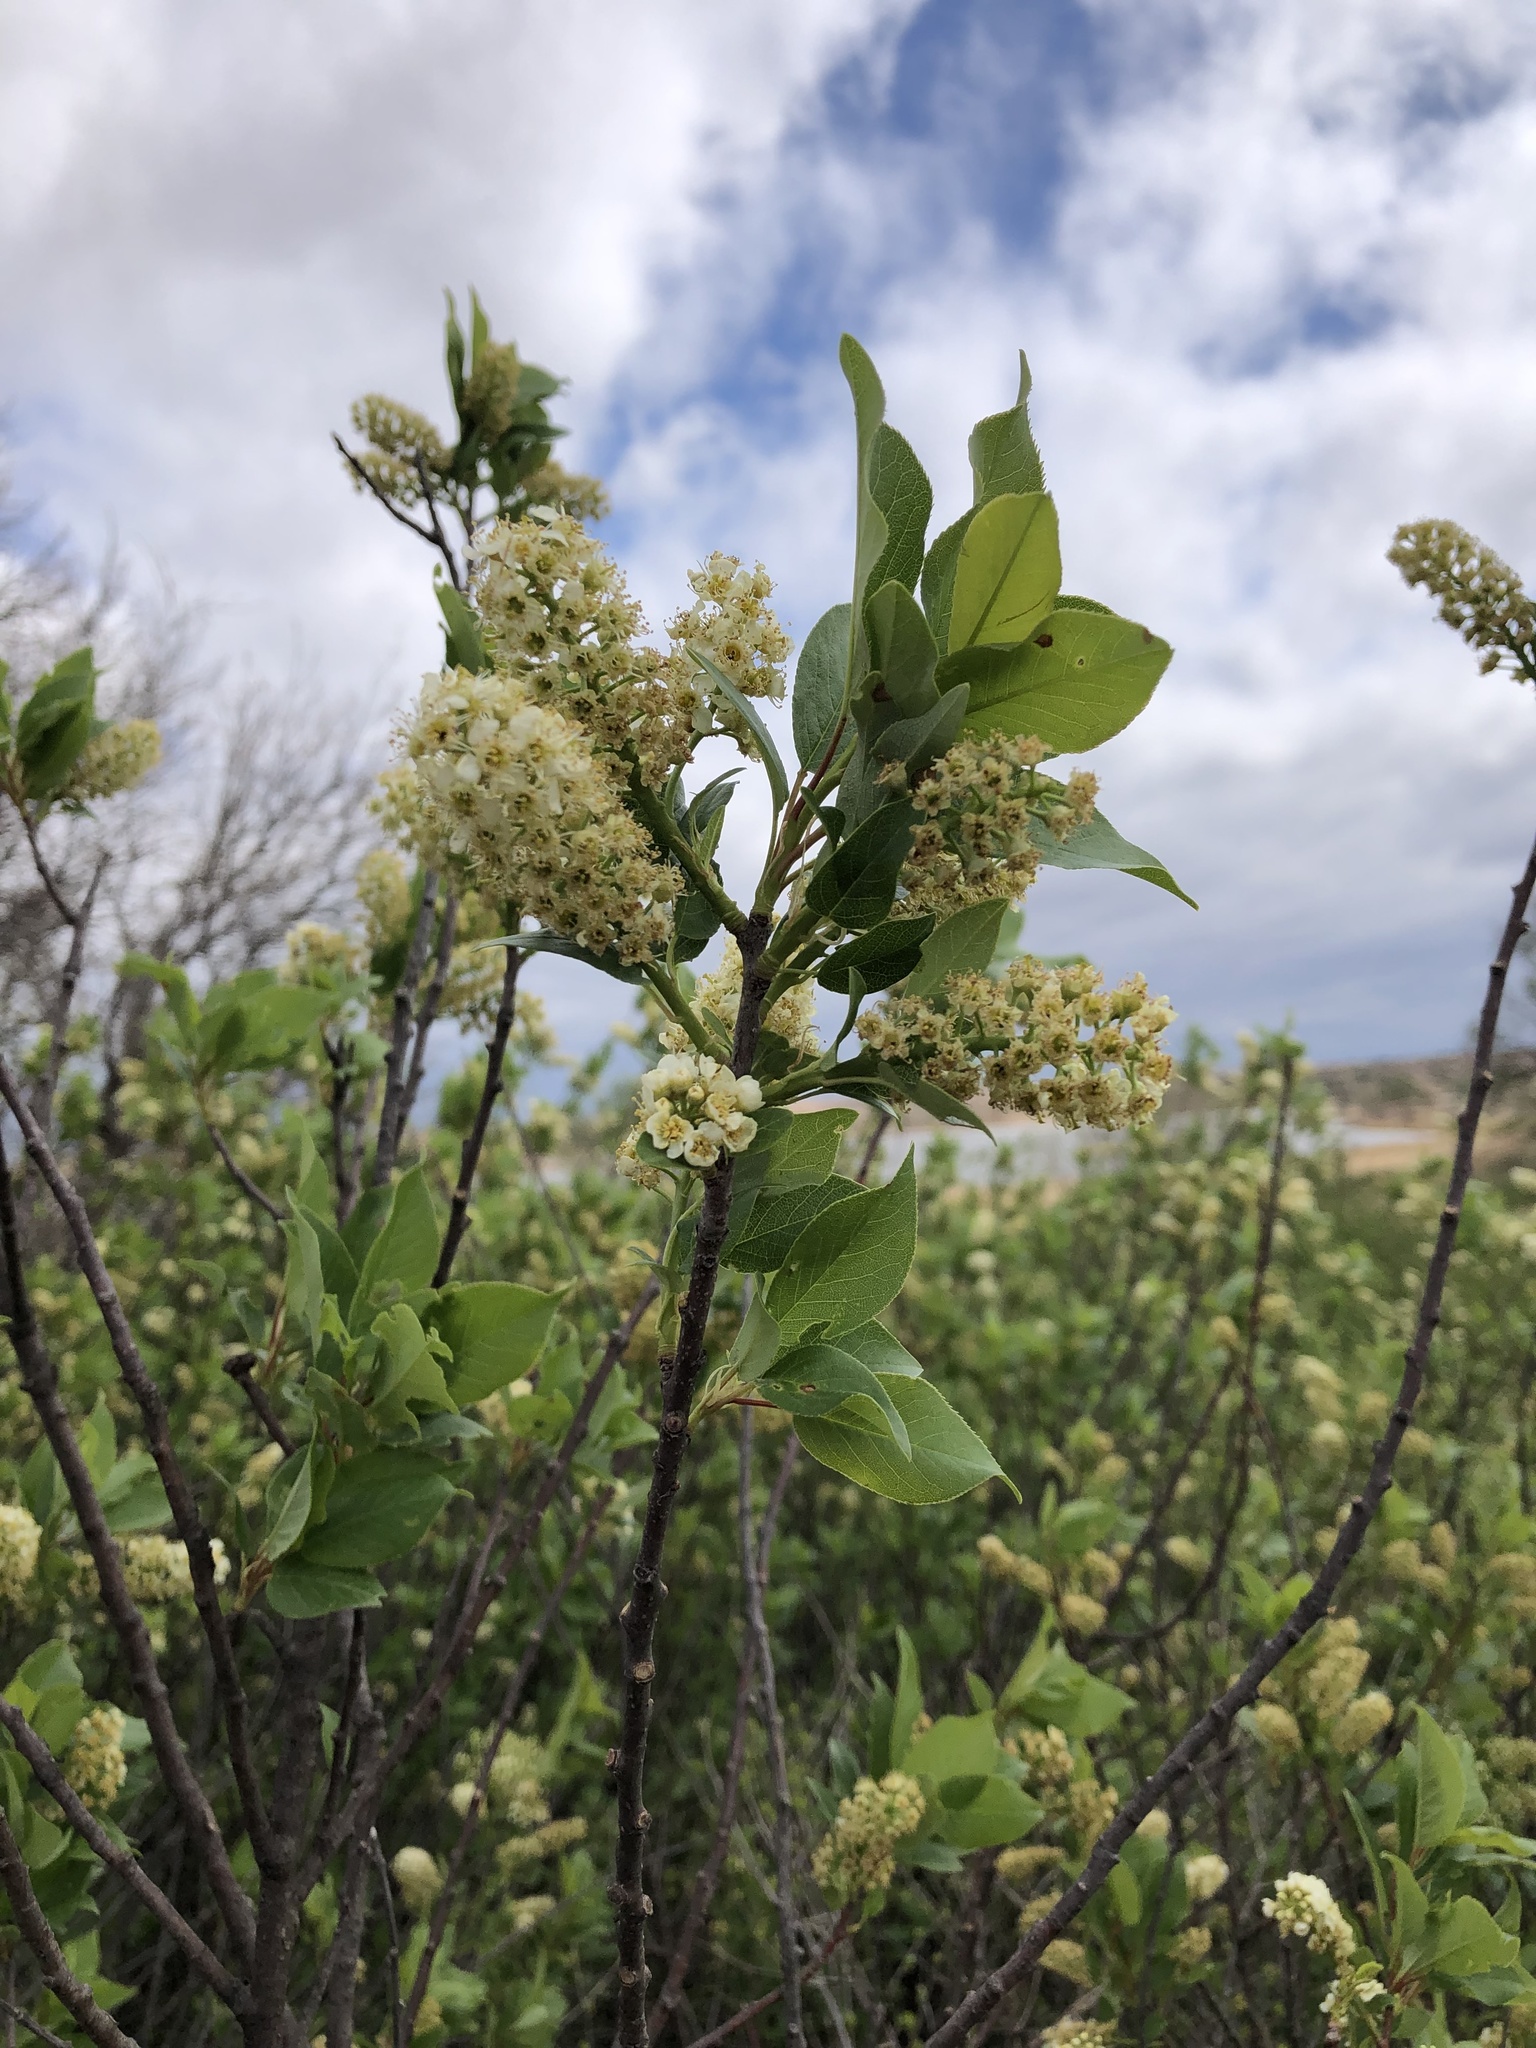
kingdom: Plantae
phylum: Tracheophyta
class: Magnoliopsida
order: Rosales
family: Rosaceae
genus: Prunus
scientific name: Prunus virginiana
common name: Chokecherry
